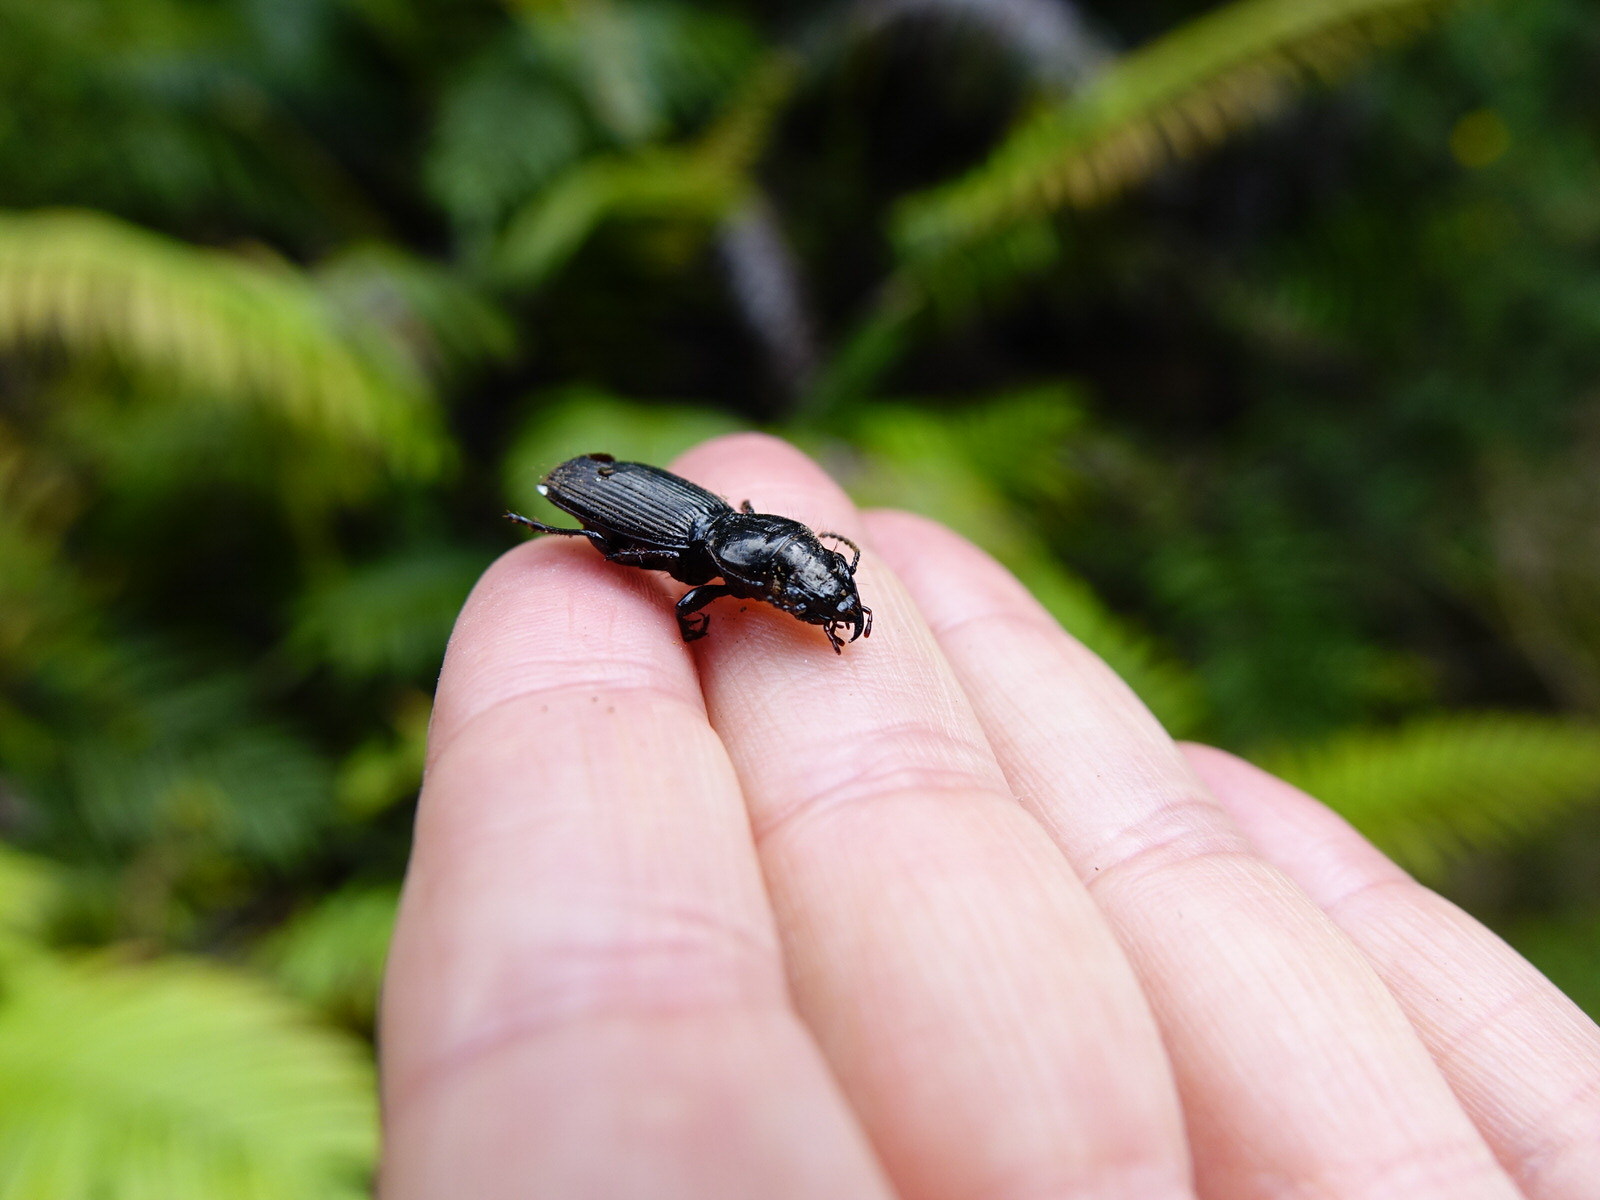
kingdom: Animalia
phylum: Arthropoda
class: Insecta
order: Coleoptera
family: Carabidae
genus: Mecodema
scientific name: Mecodema spiniferum
